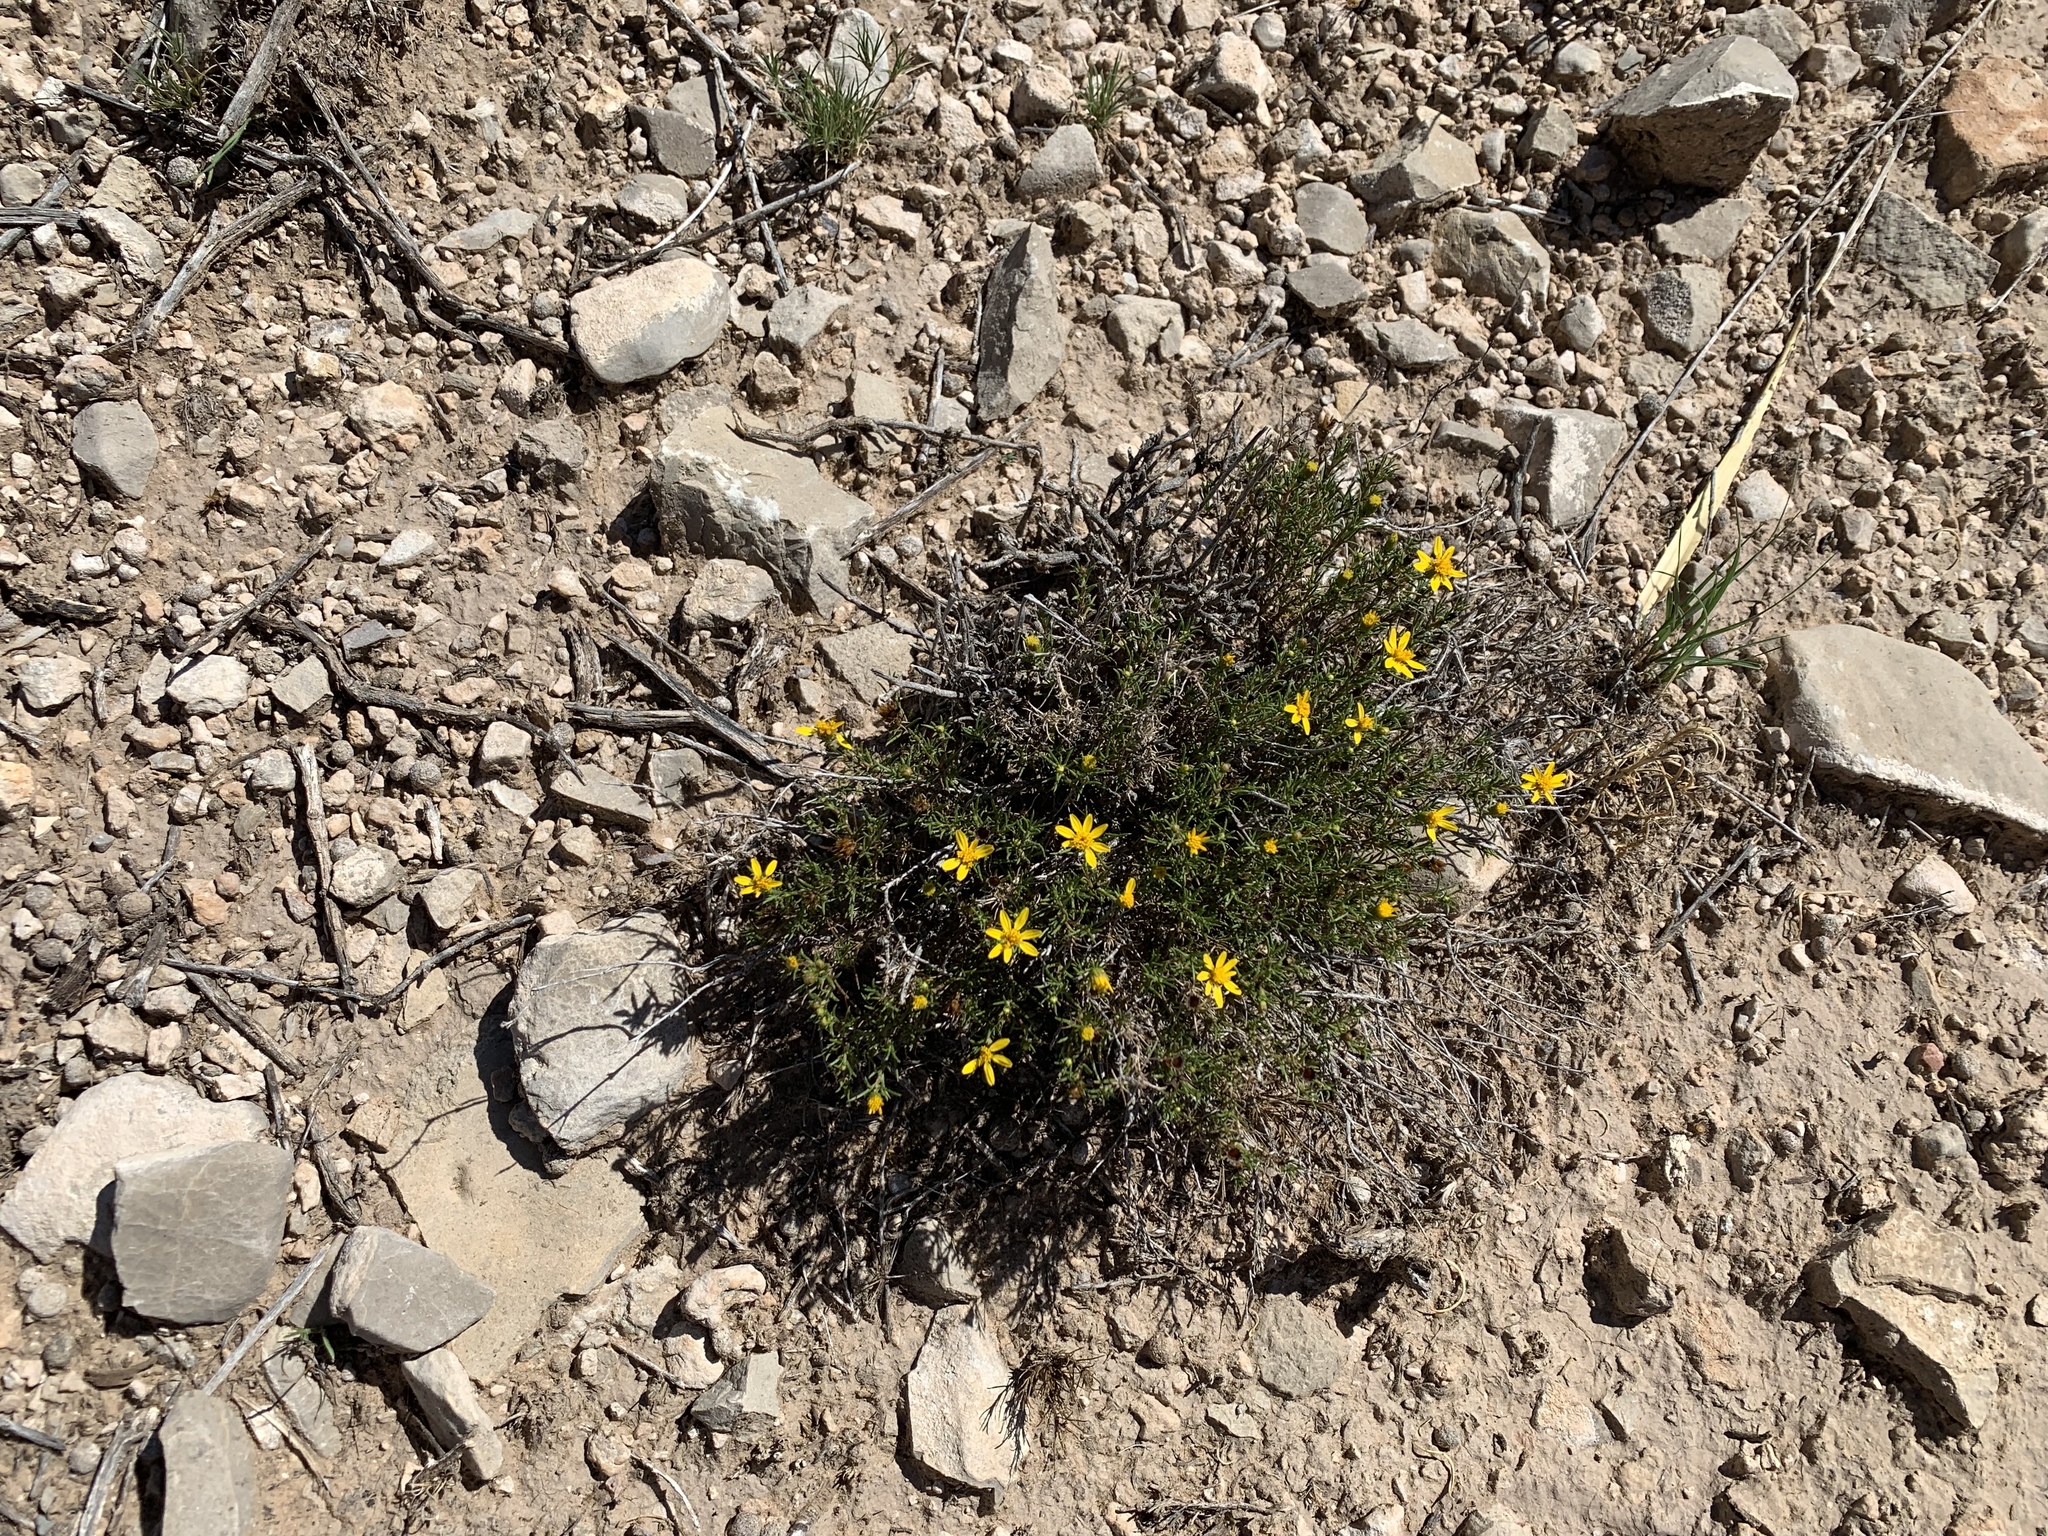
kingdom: Plantae
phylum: Tracheophyta
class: Magnoliopsida
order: Asterales
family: Asteraceae
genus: Thymophylla
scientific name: Thymophylla acerosa
